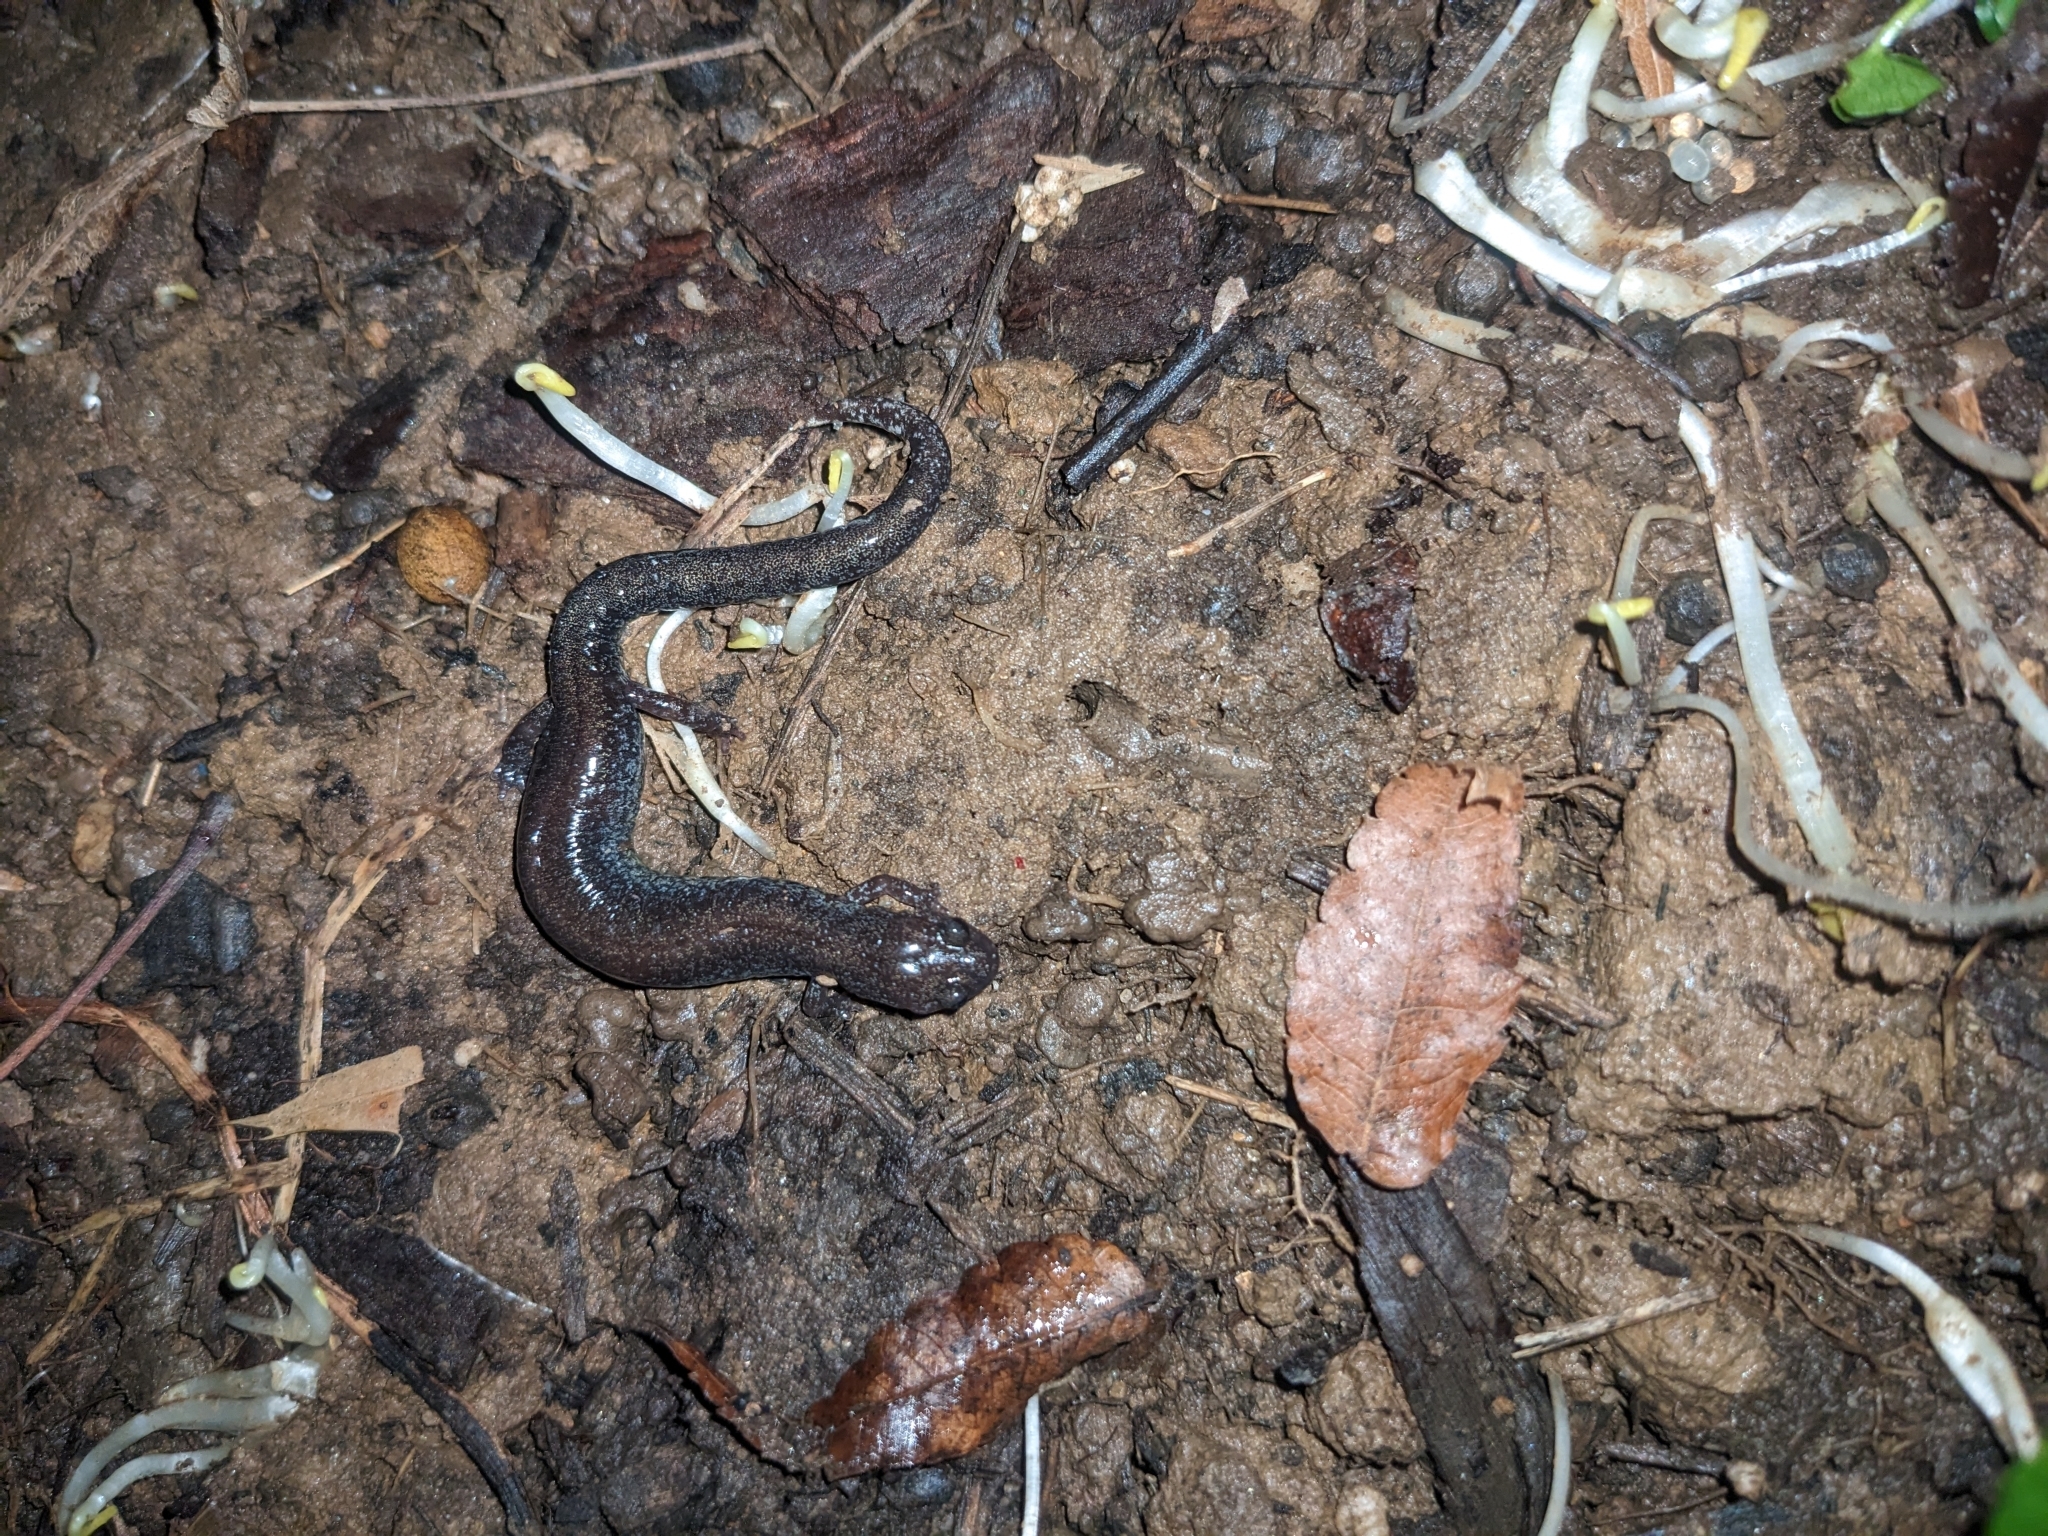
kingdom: Animalia
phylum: Chordata
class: Amphibia
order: Caudata
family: Plethodontidae
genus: Plethodon
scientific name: Plethodon cinereus
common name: Redback salamander
